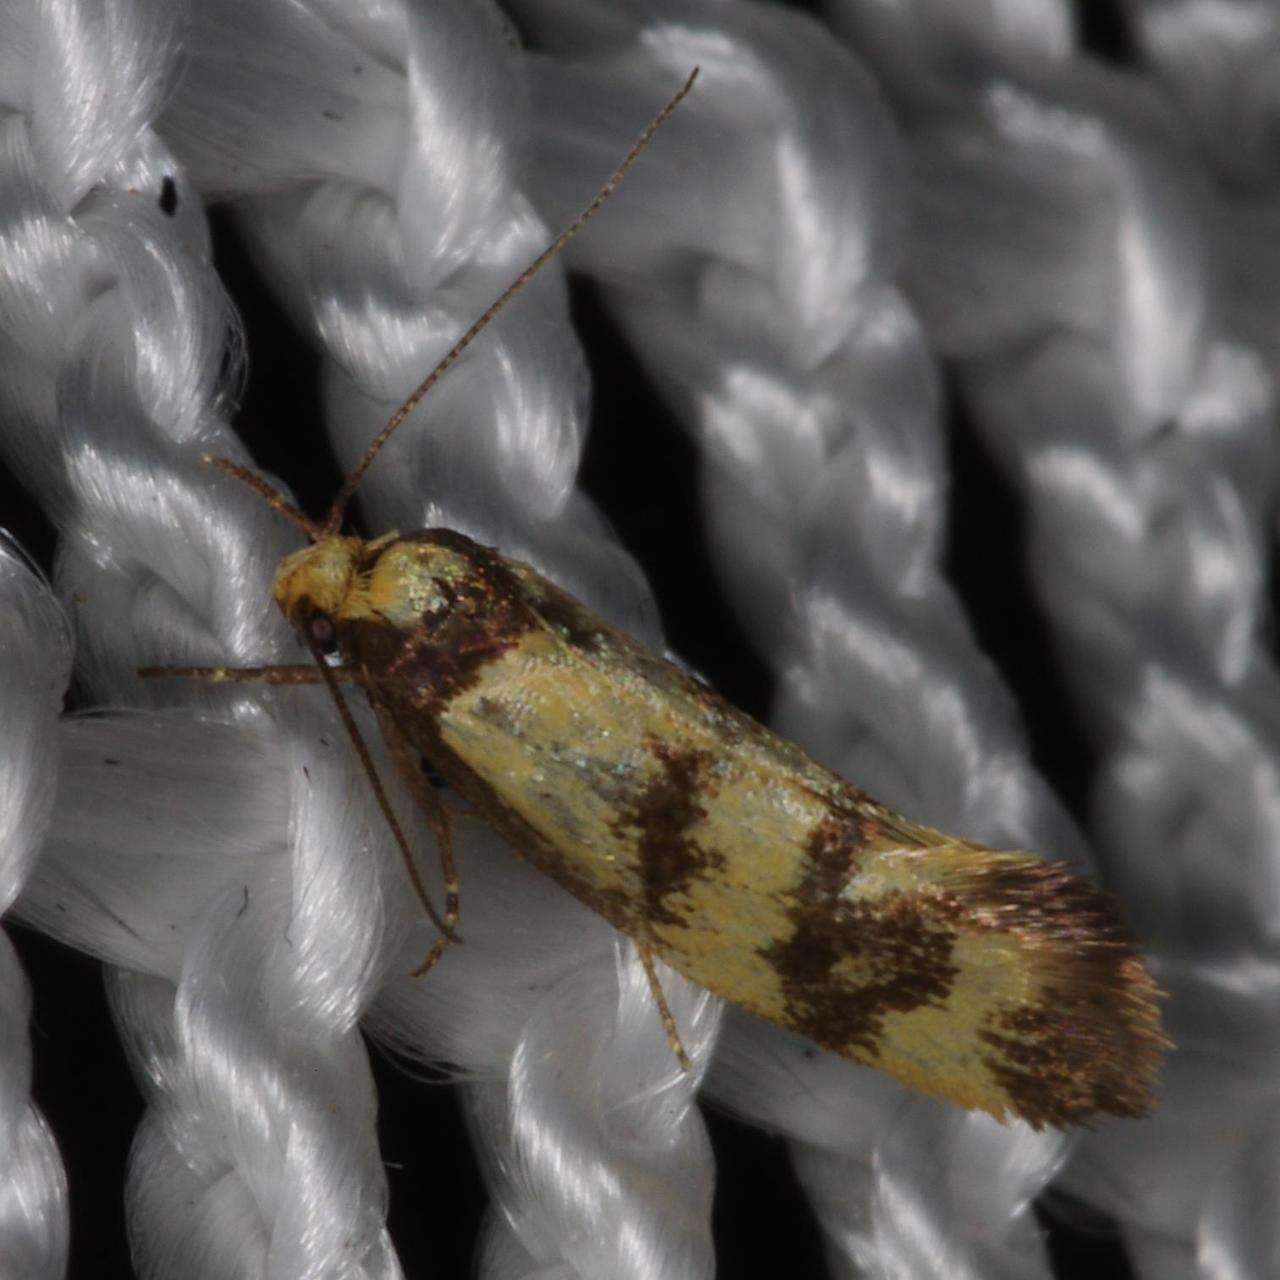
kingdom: Animalia
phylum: Arthropoda
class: Insecta
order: Lepidoptera
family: Oecophoridae
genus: Olbonoma
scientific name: Olbonoma triptycha
